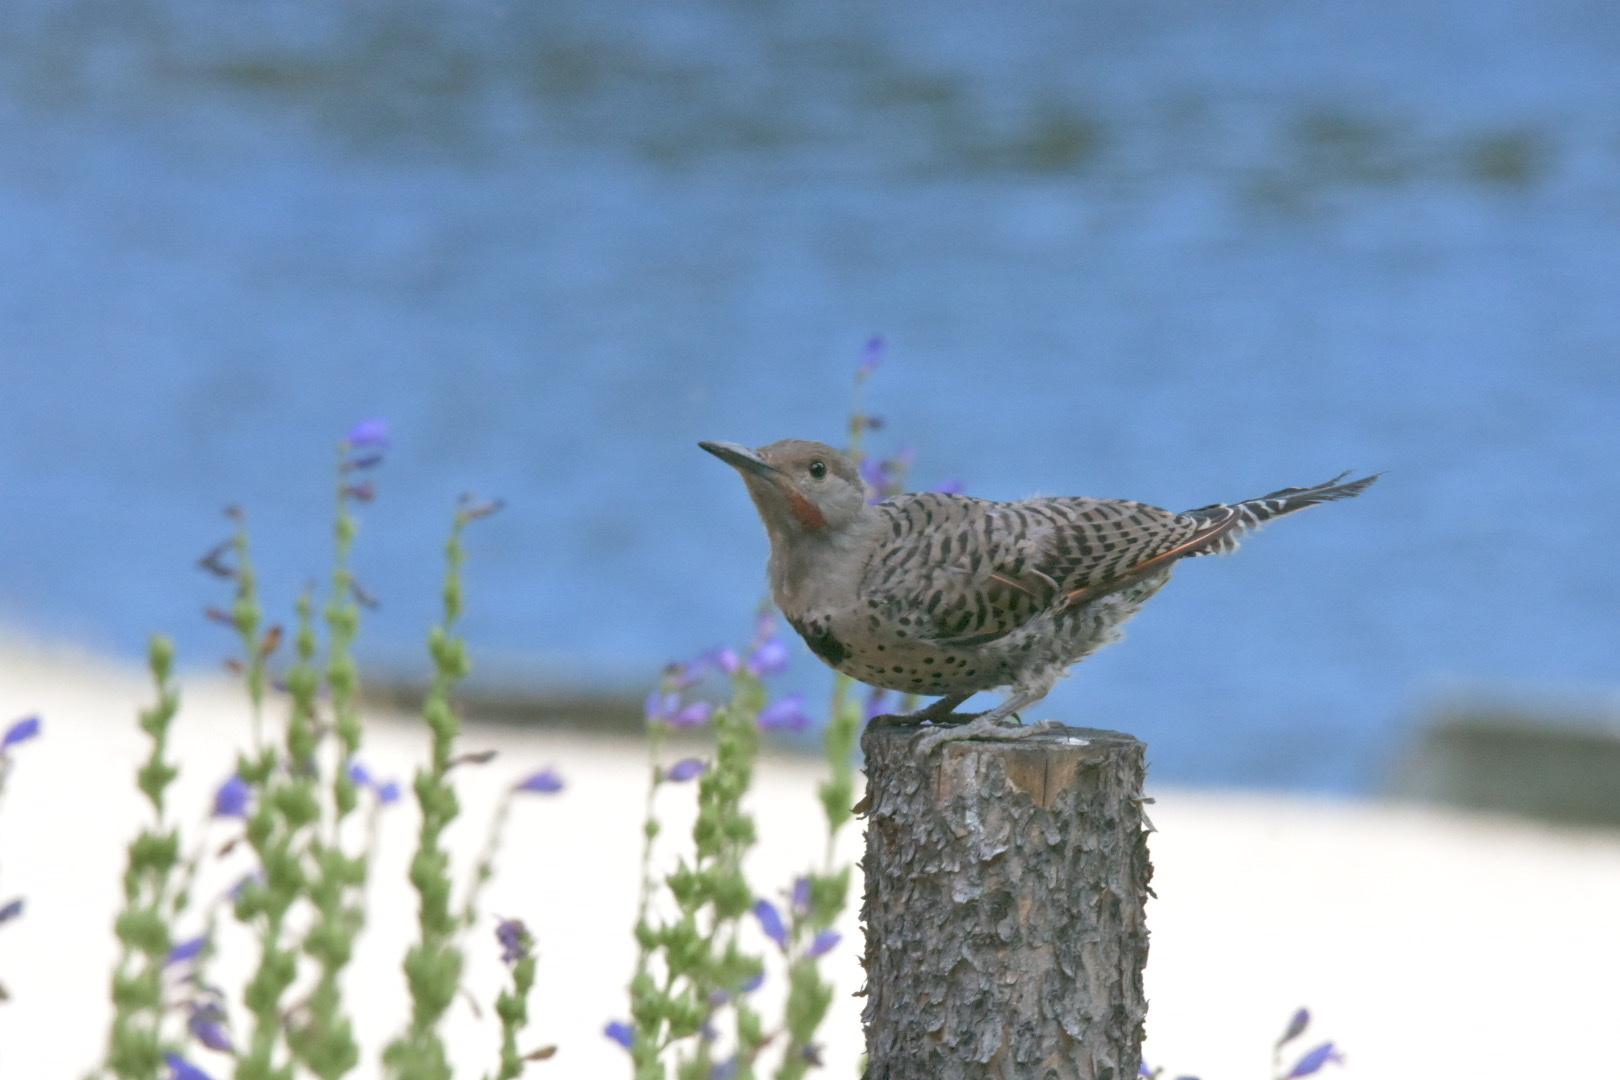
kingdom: Animalia
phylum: Chordata
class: Aves
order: Piciformes
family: Picidae
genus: Colaptes
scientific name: Colaptes auratus
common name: Northern flicker
